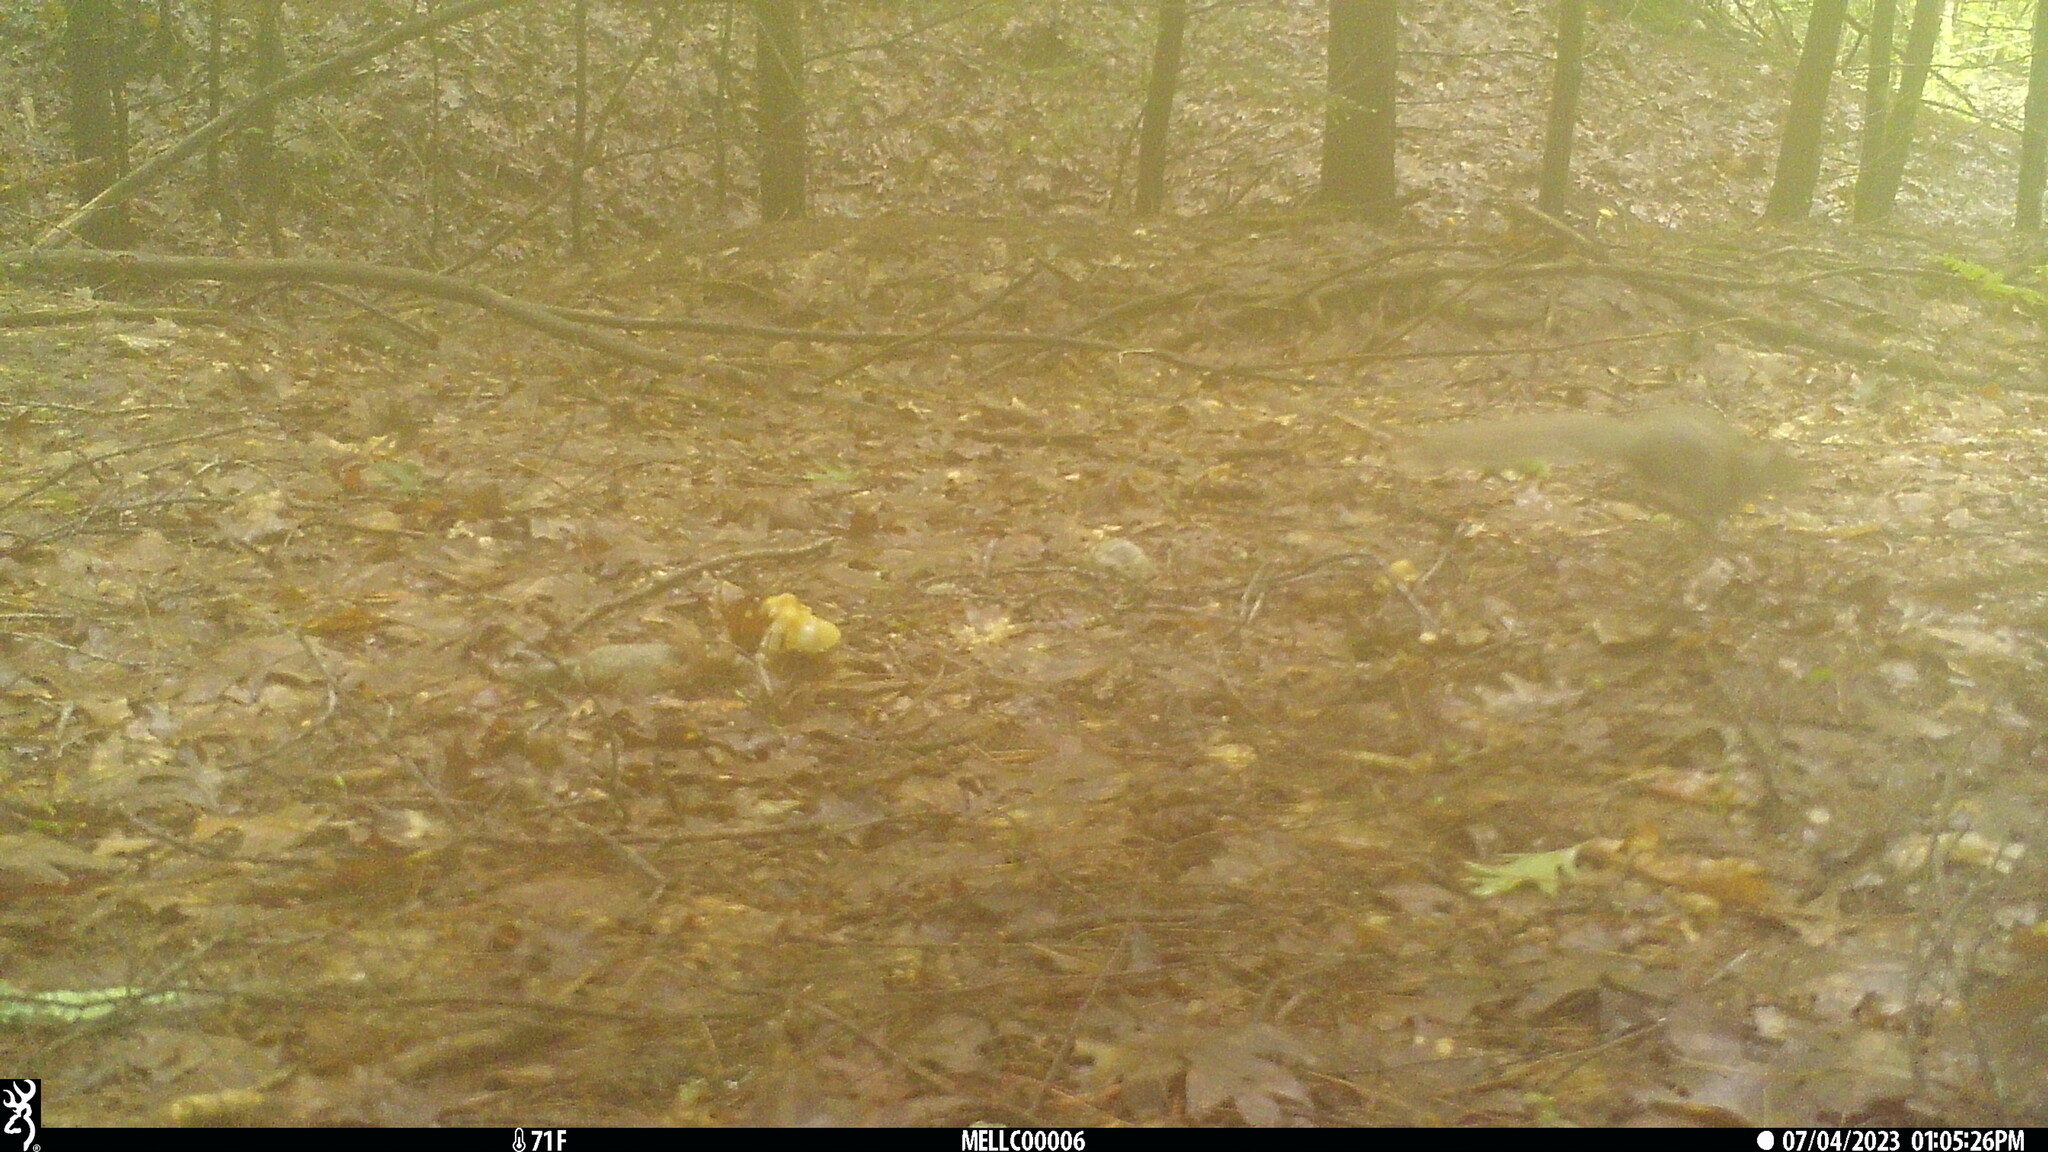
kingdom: Animalia
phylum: Chordata
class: Mammalia
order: Rodentia
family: Sciuridae
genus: Sciurus
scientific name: Sciurus carolinensis
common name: Eastern gray squirrel
